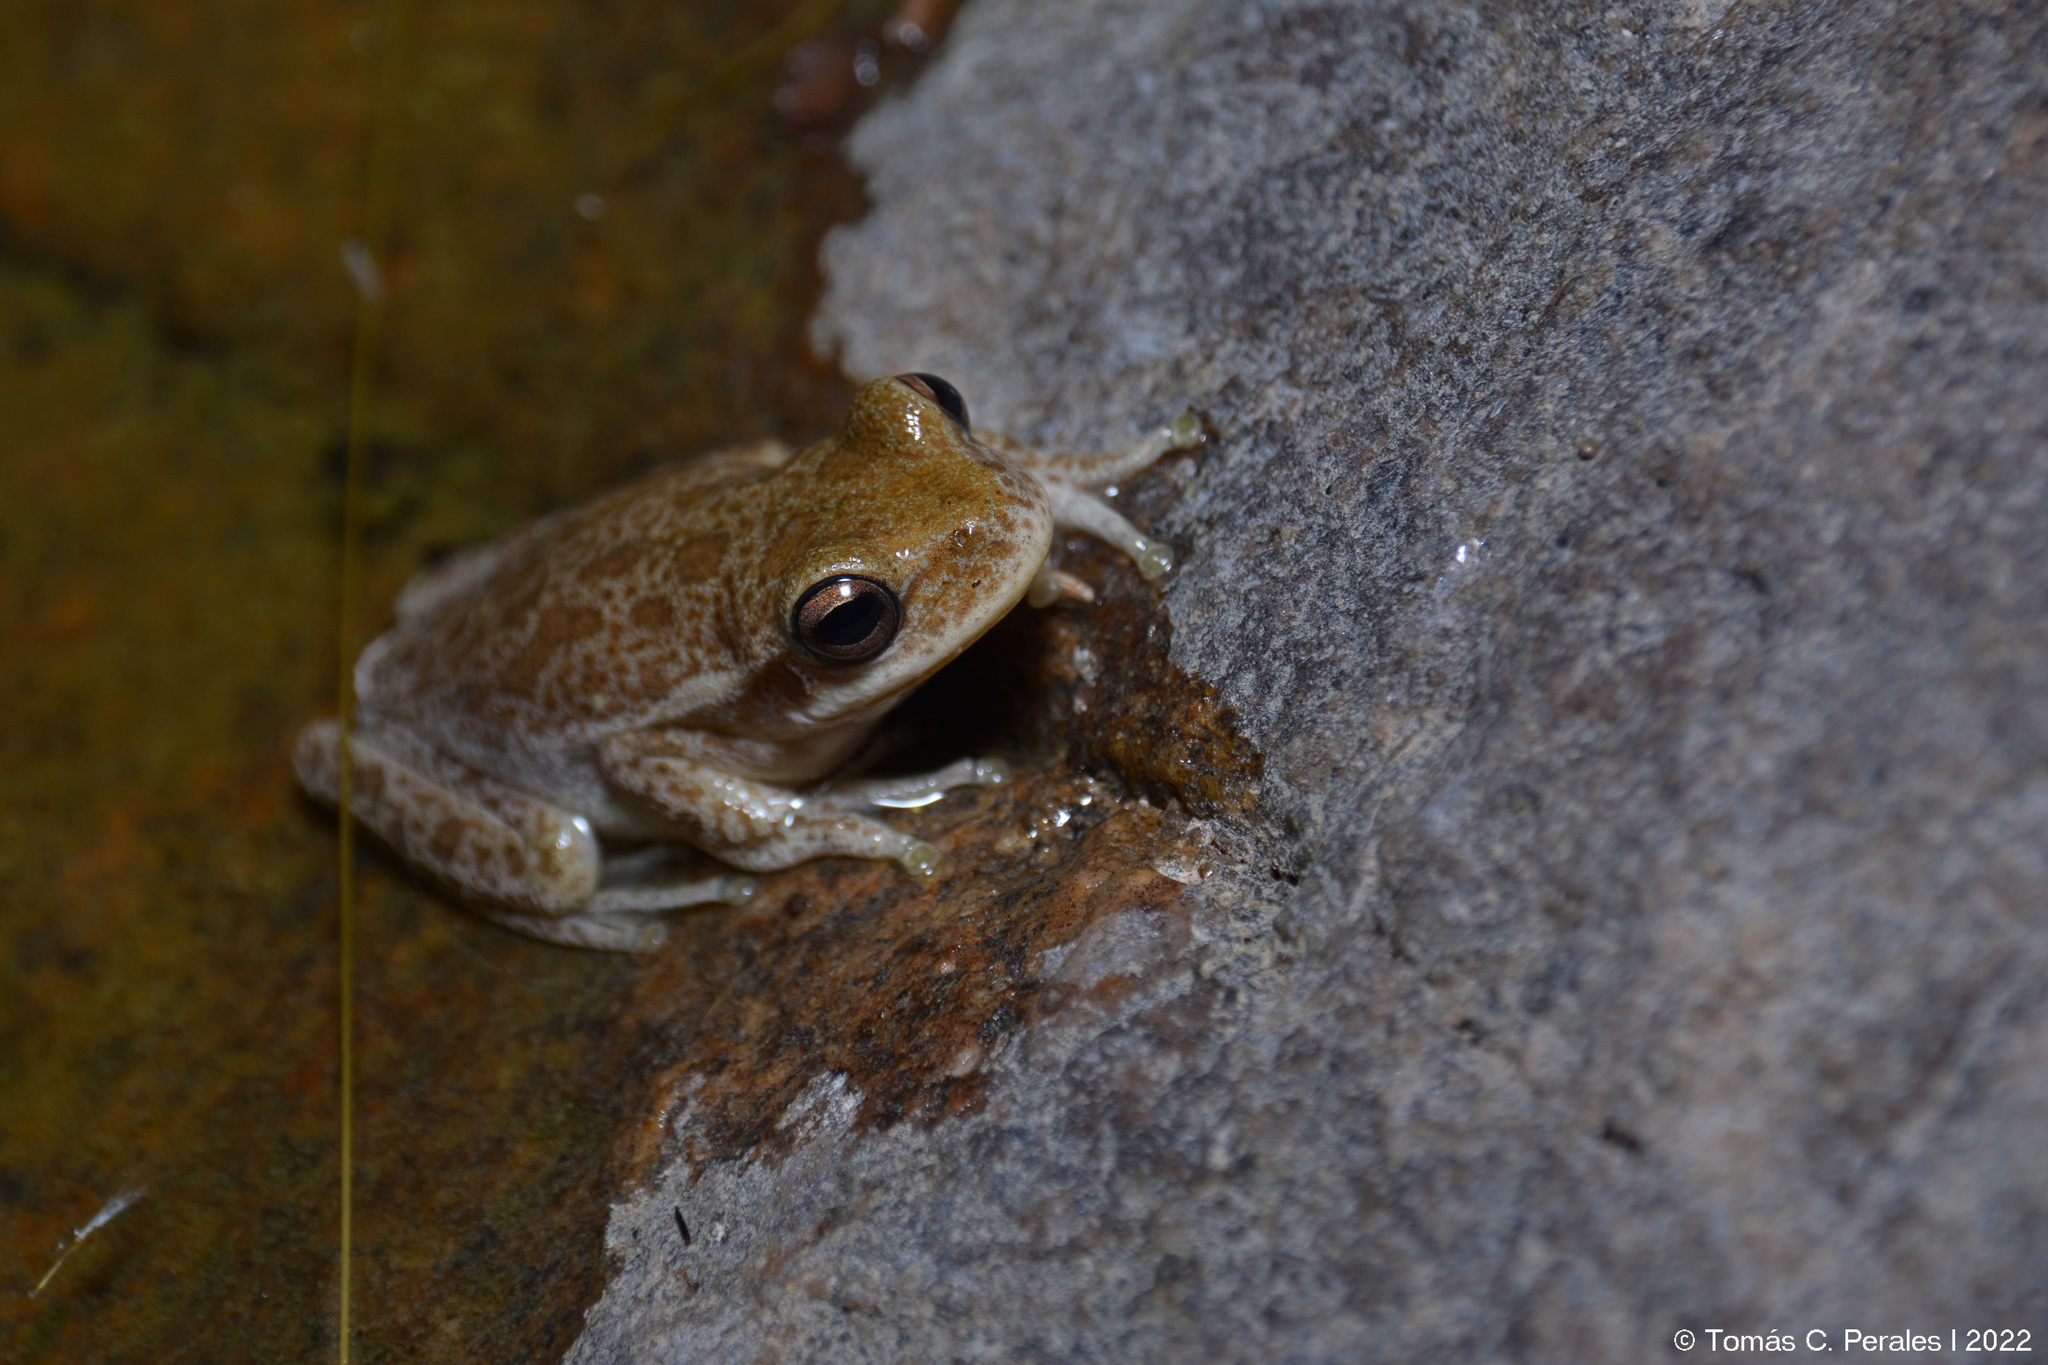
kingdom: Animalia
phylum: Chordata
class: Amphibia
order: Anura
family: Hylidae
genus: Boana
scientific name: Boana cordobae
